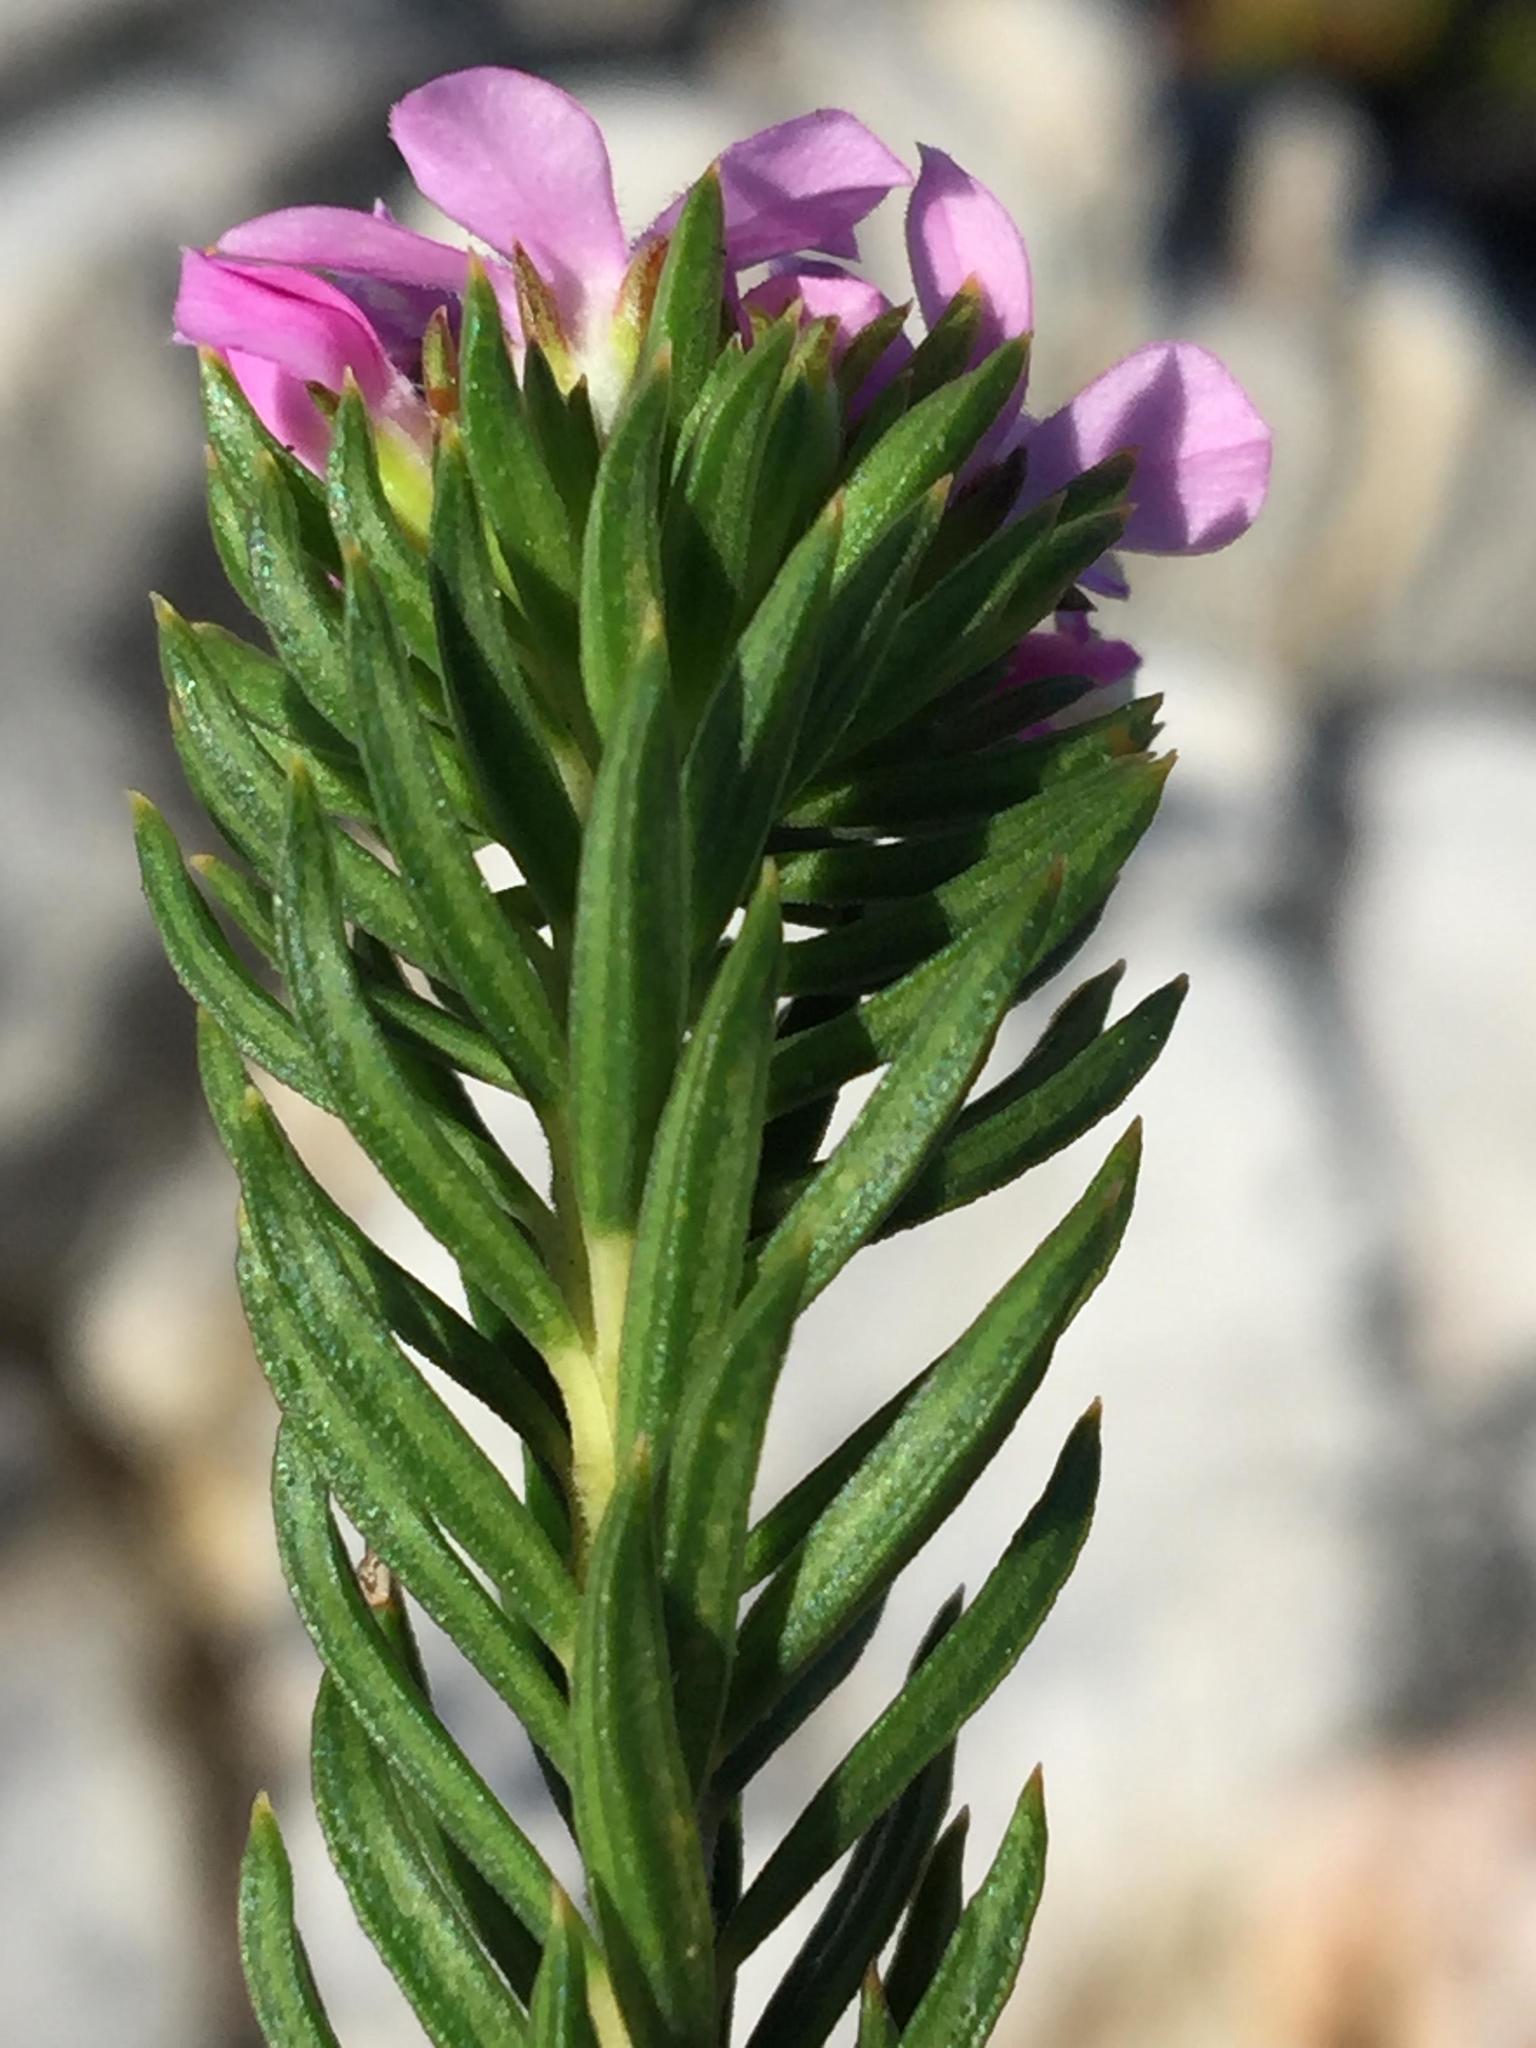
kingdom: Plantae
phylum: Tracheophyta
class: Magnoliopsida
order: Sapindales
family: Rutaceae
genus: Acmadenia
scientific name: Acmadenia alternifolia
